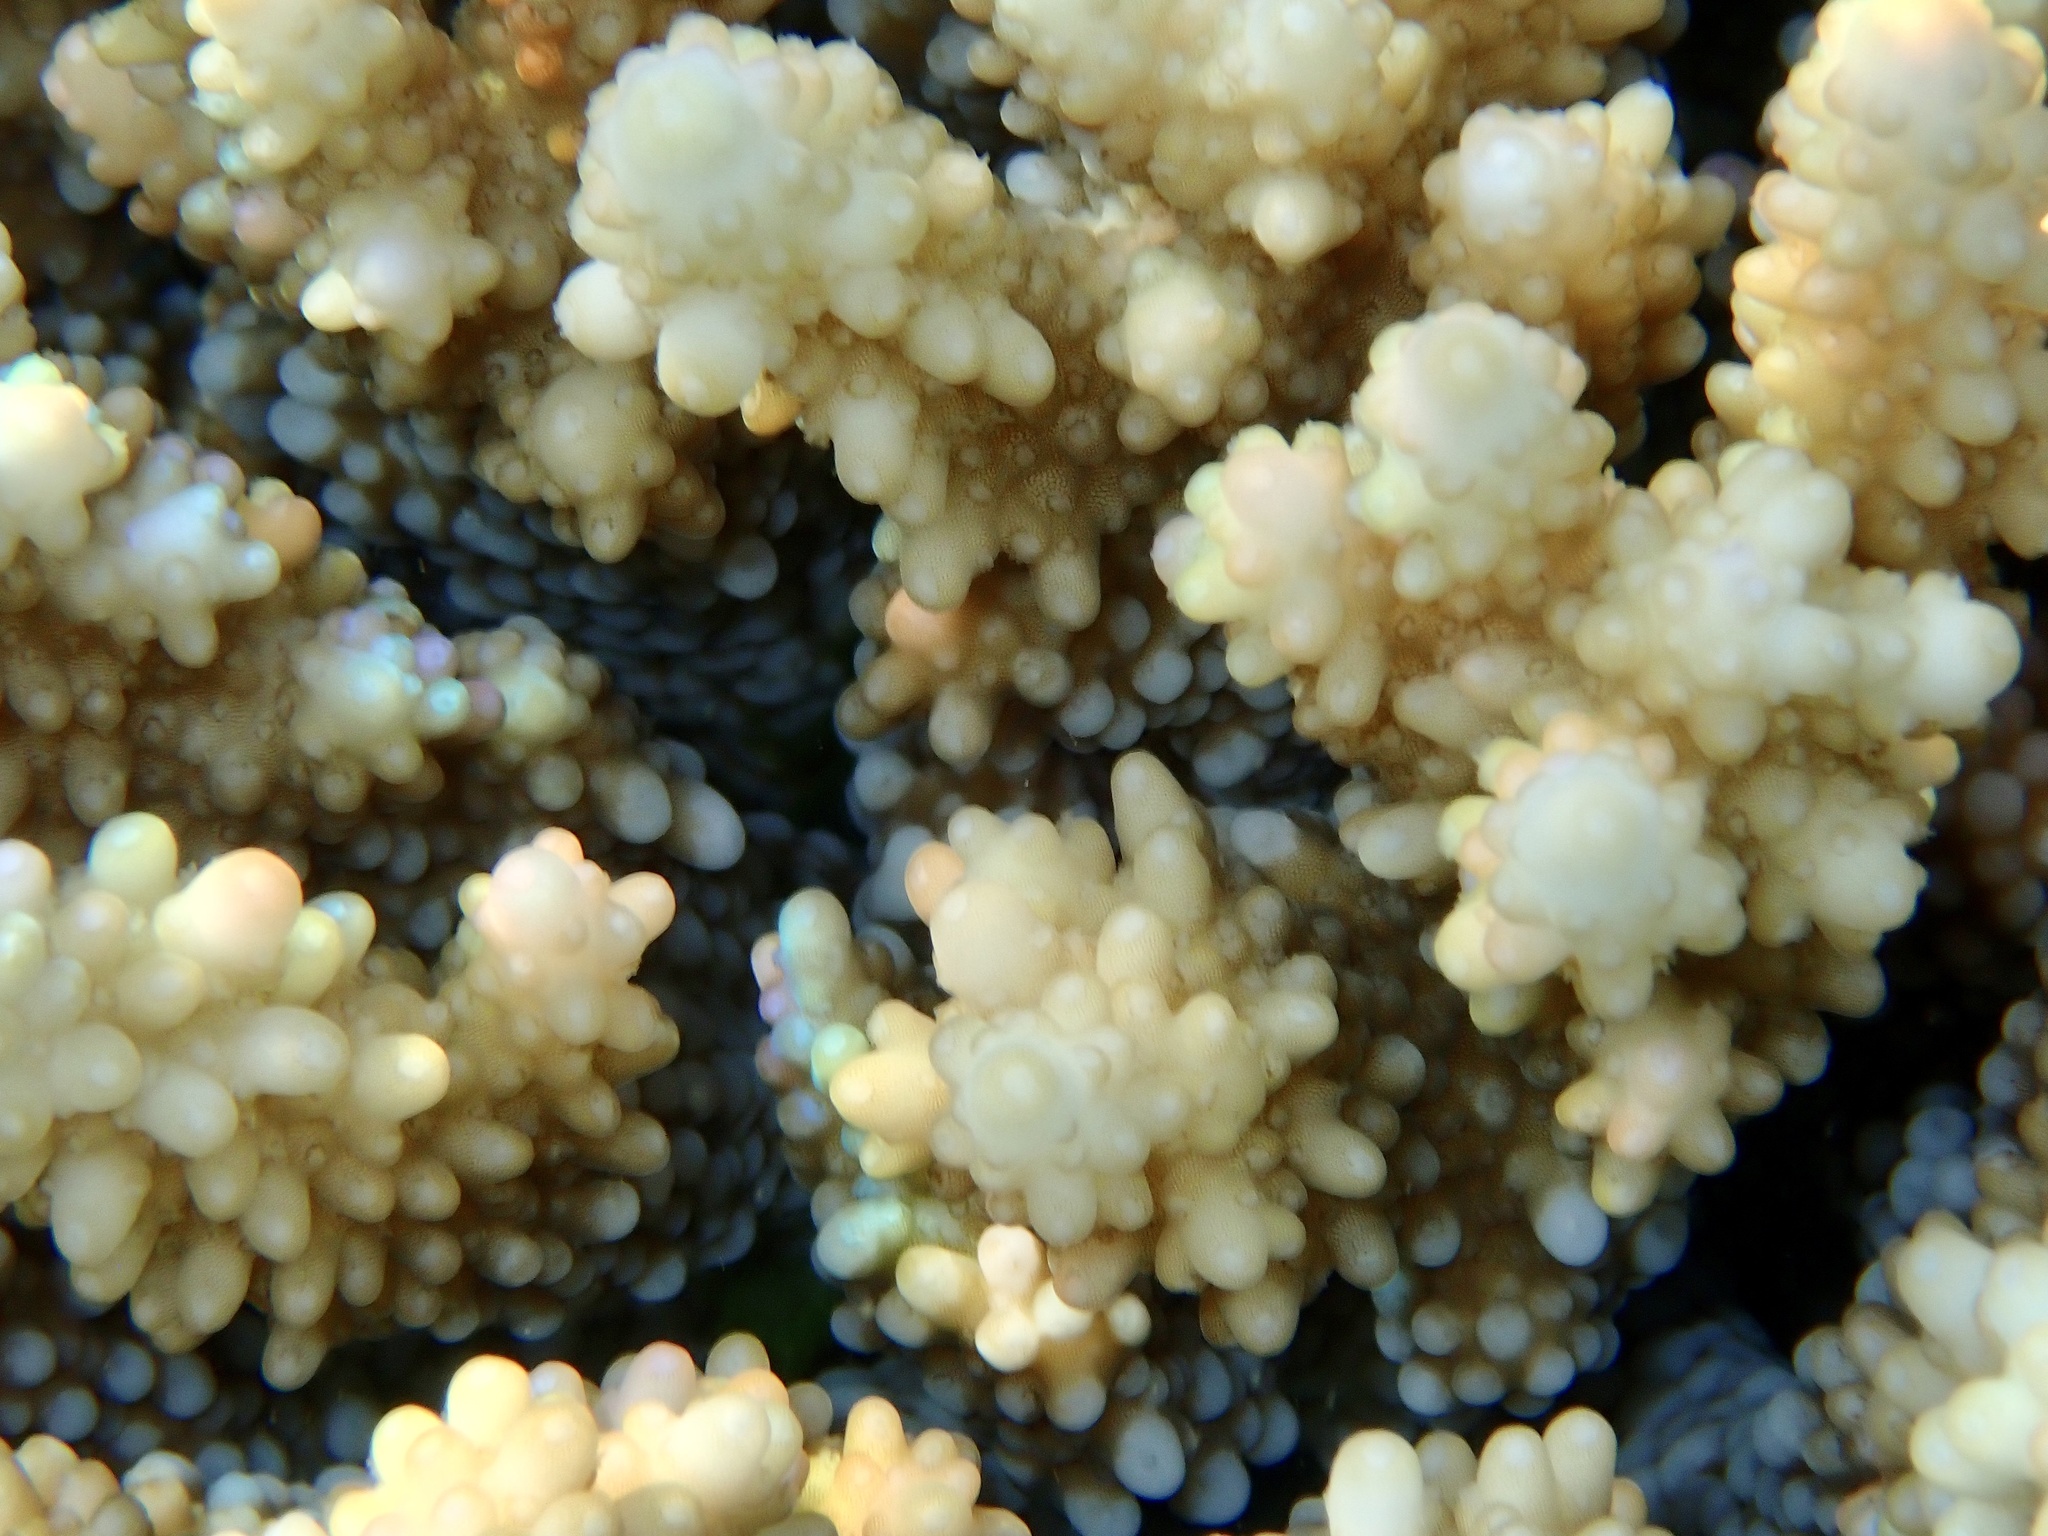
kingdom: Animalia
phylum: Cnidaria
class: Anthozoa
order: Scleractinia
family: Acroporidae
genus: Acropora
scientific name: Acropora hemprichii
